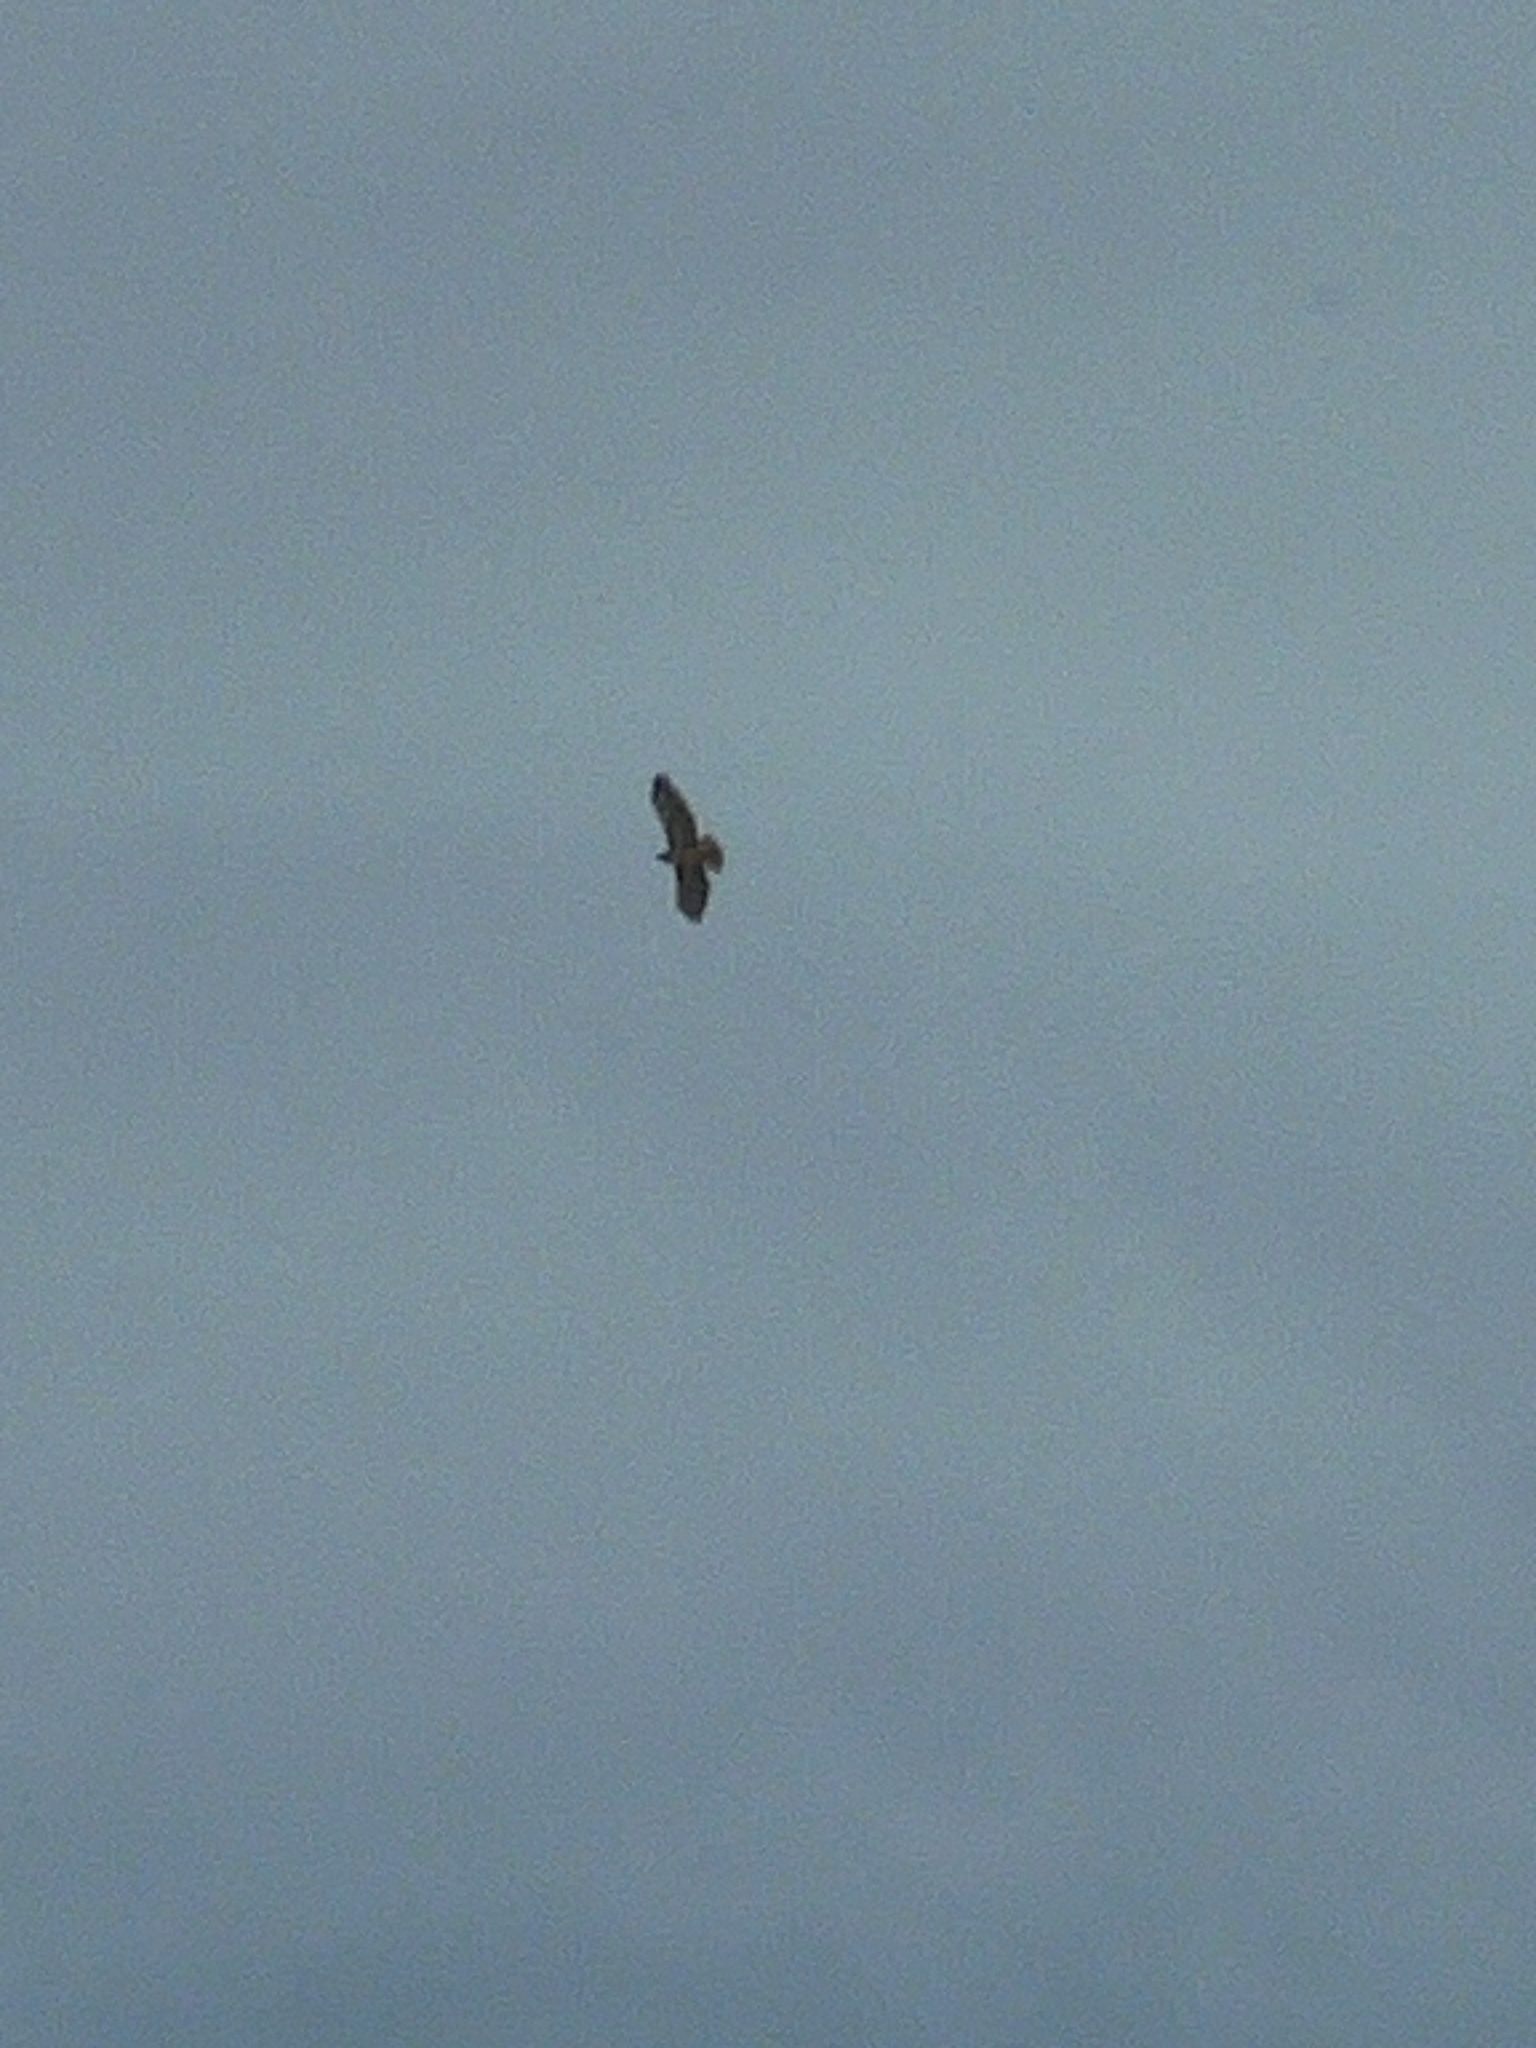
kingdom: Animalia
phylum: Chordata
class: Aves
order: Accipitriformes
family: Accipitridae
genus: Buteo
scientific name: Buteo jamaicensis
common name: Red-tailed hawk
